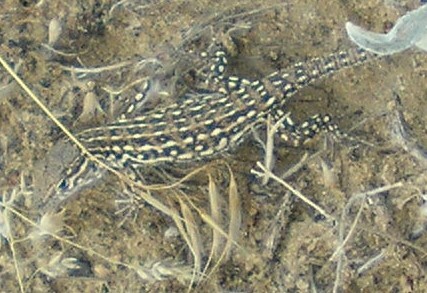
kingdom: Animalia
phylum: Chordata
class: Squamata
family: Lacertidae
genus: Eremias
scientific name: Eremias arguta
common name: Racerunner
